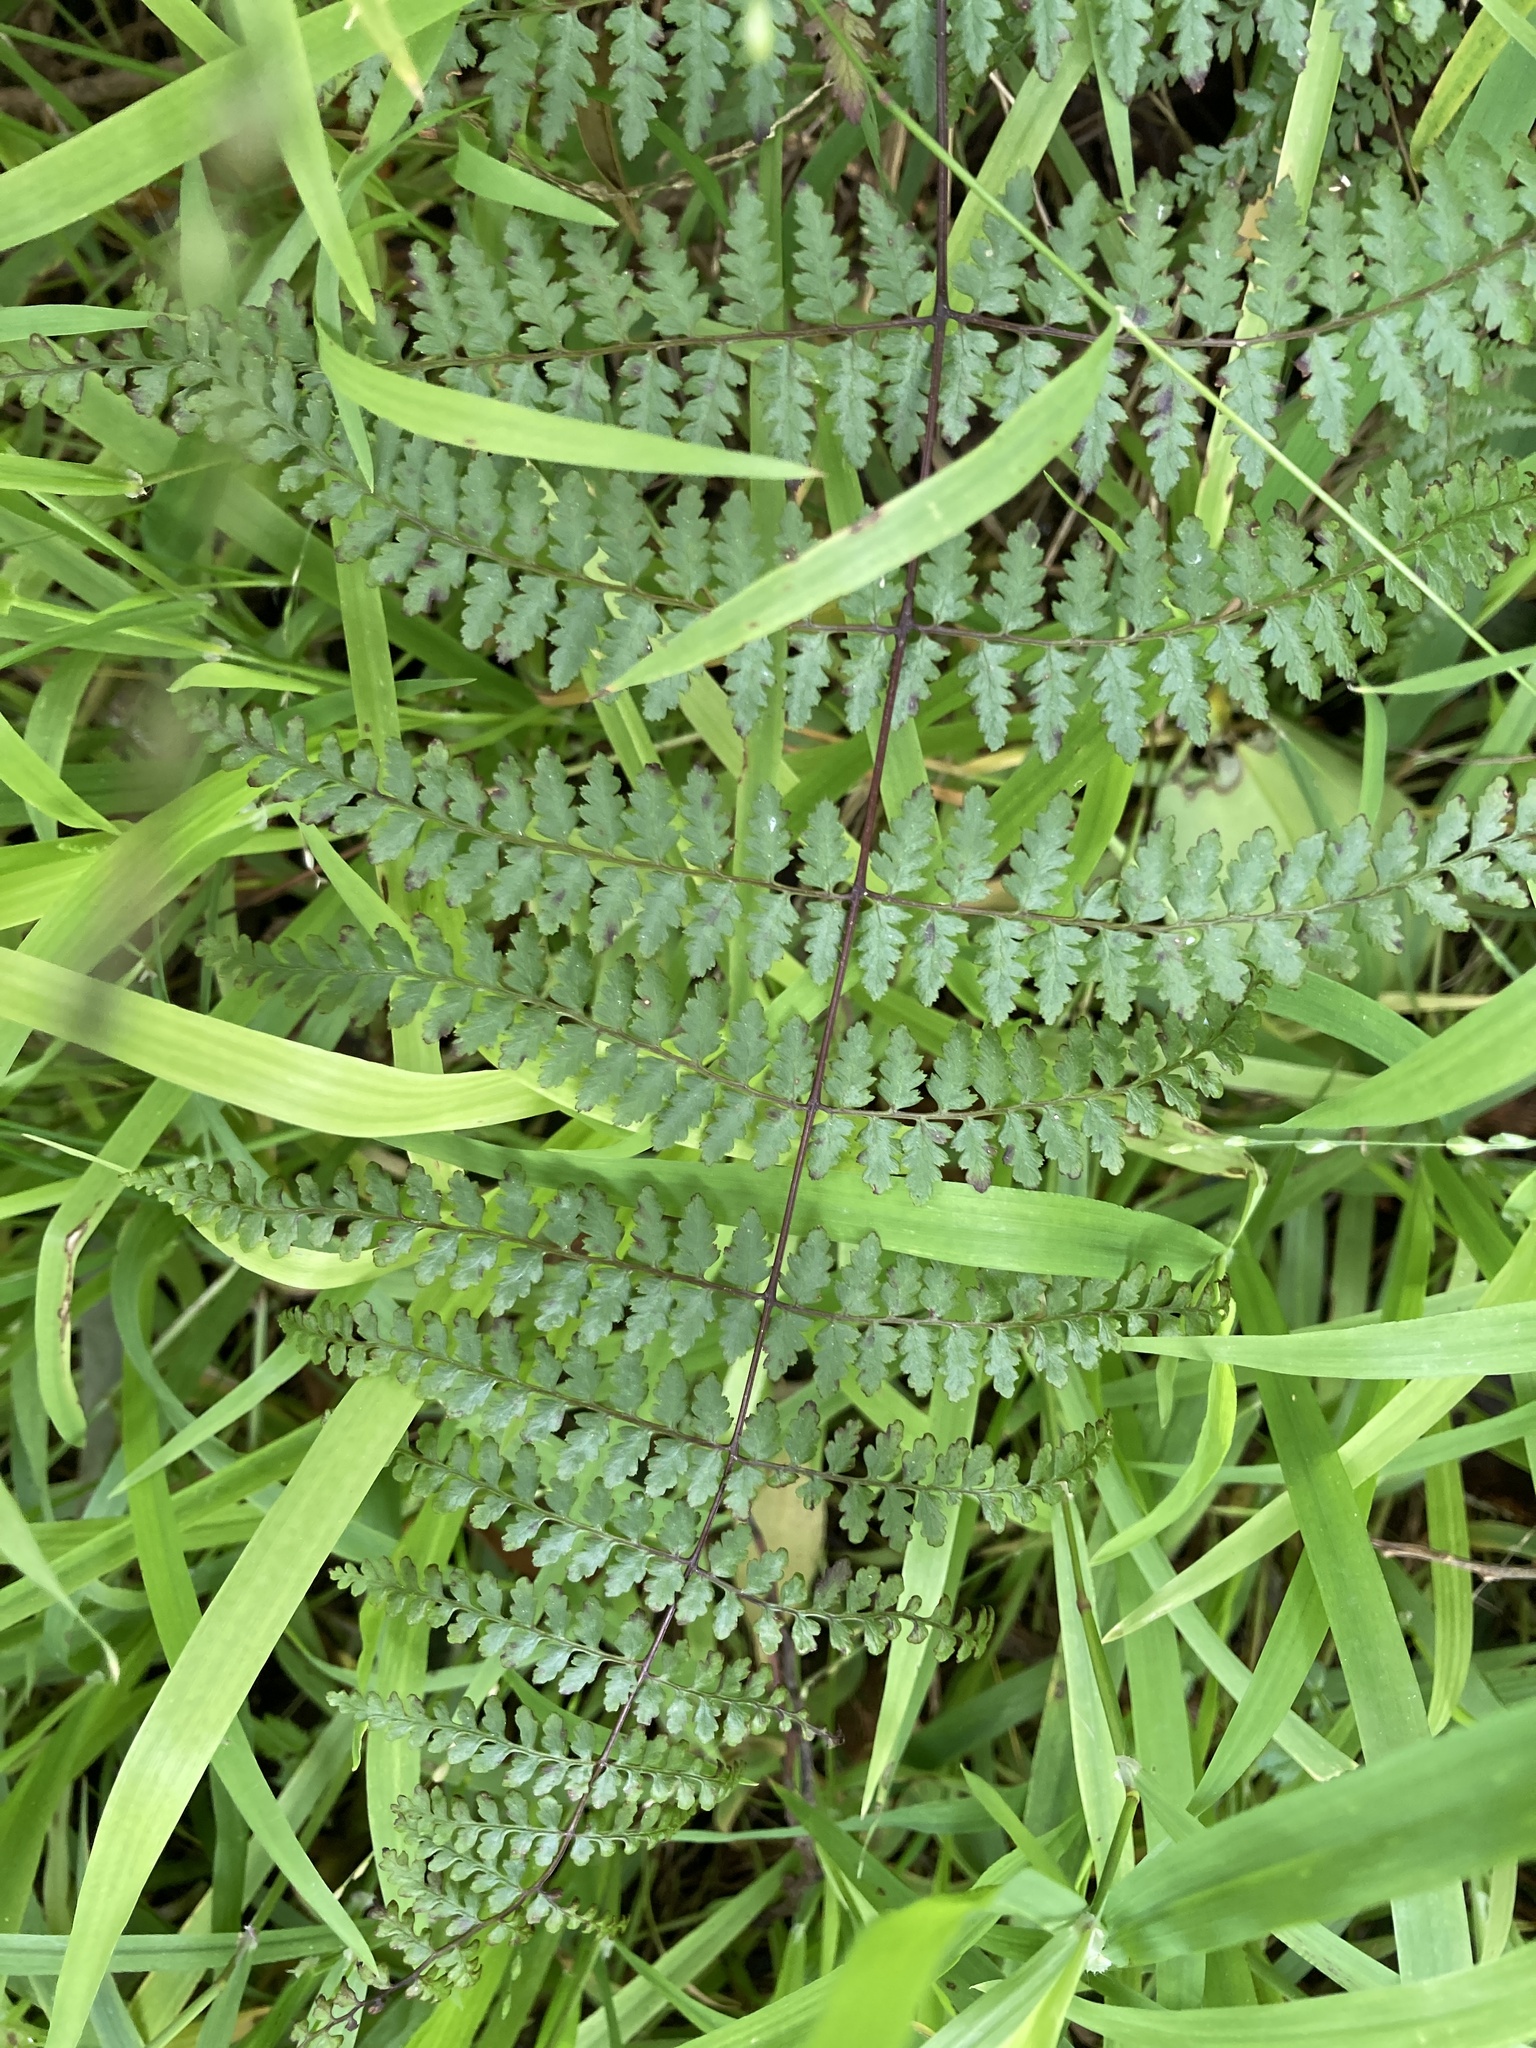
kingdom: Plantae
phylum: Tracheophyta
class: Polypodiopsida
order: Polypodiales
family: Dennstaedtiaceae
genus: Hiya
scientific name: Hiya distans
